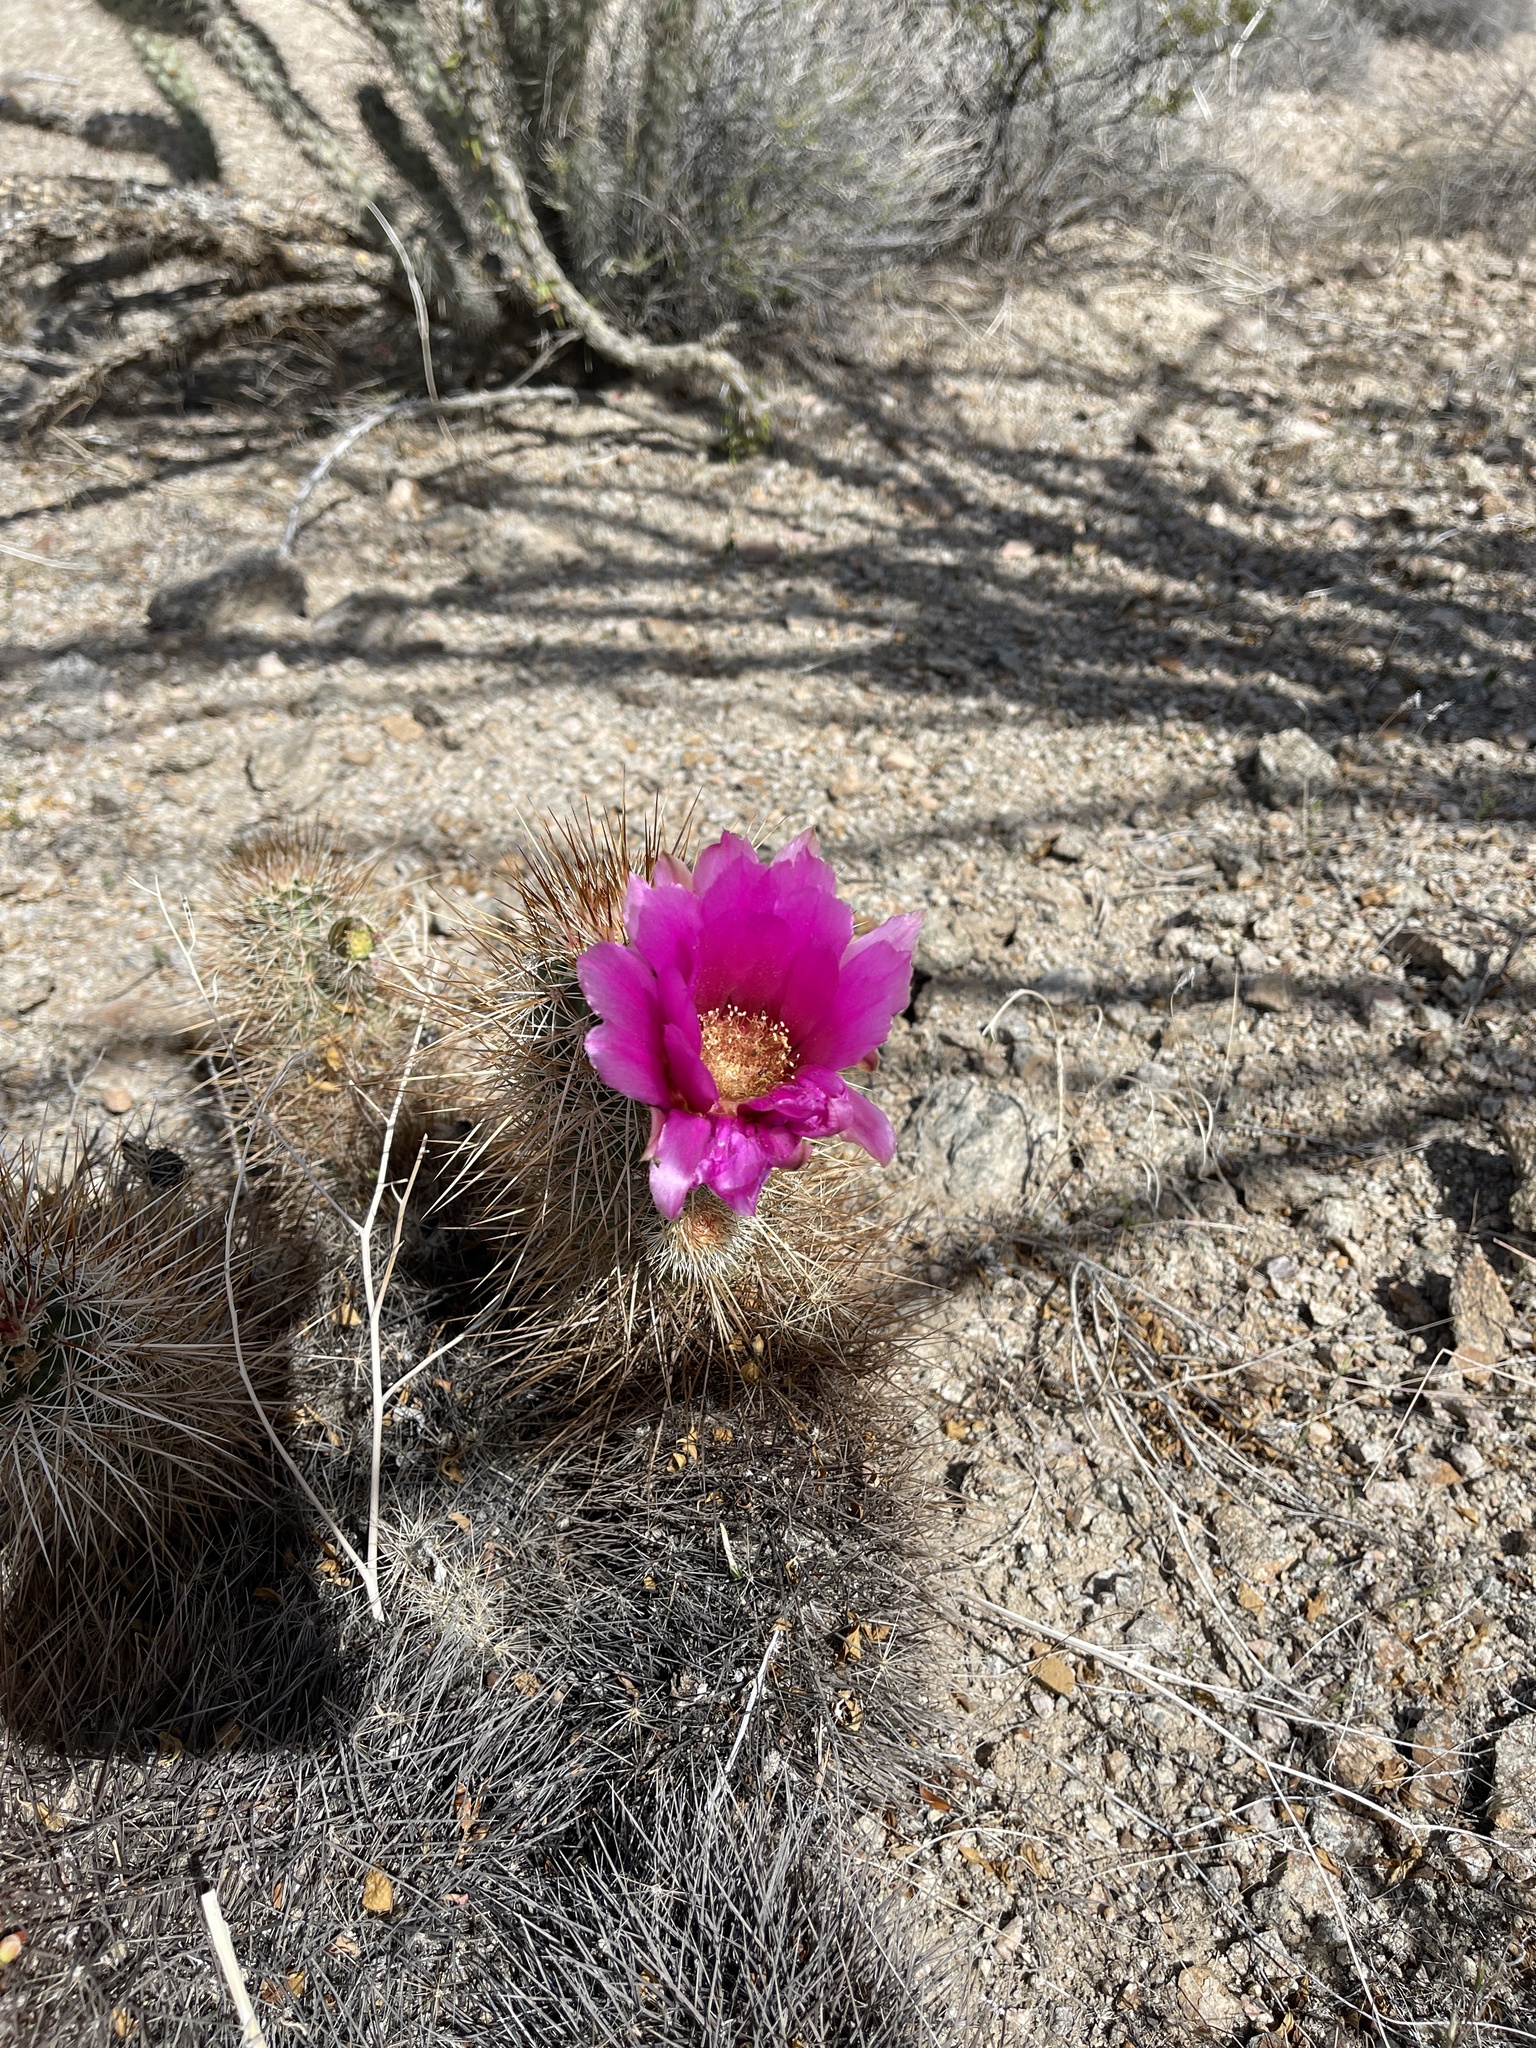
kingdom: Plantae
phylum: Tracheophyta
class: Magnoliopsida
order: Caryophyllales
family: Cactaceae
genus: Echinocereus
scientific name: Echinocereus engelmannii
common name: Engelmann's hedgehog cactus
